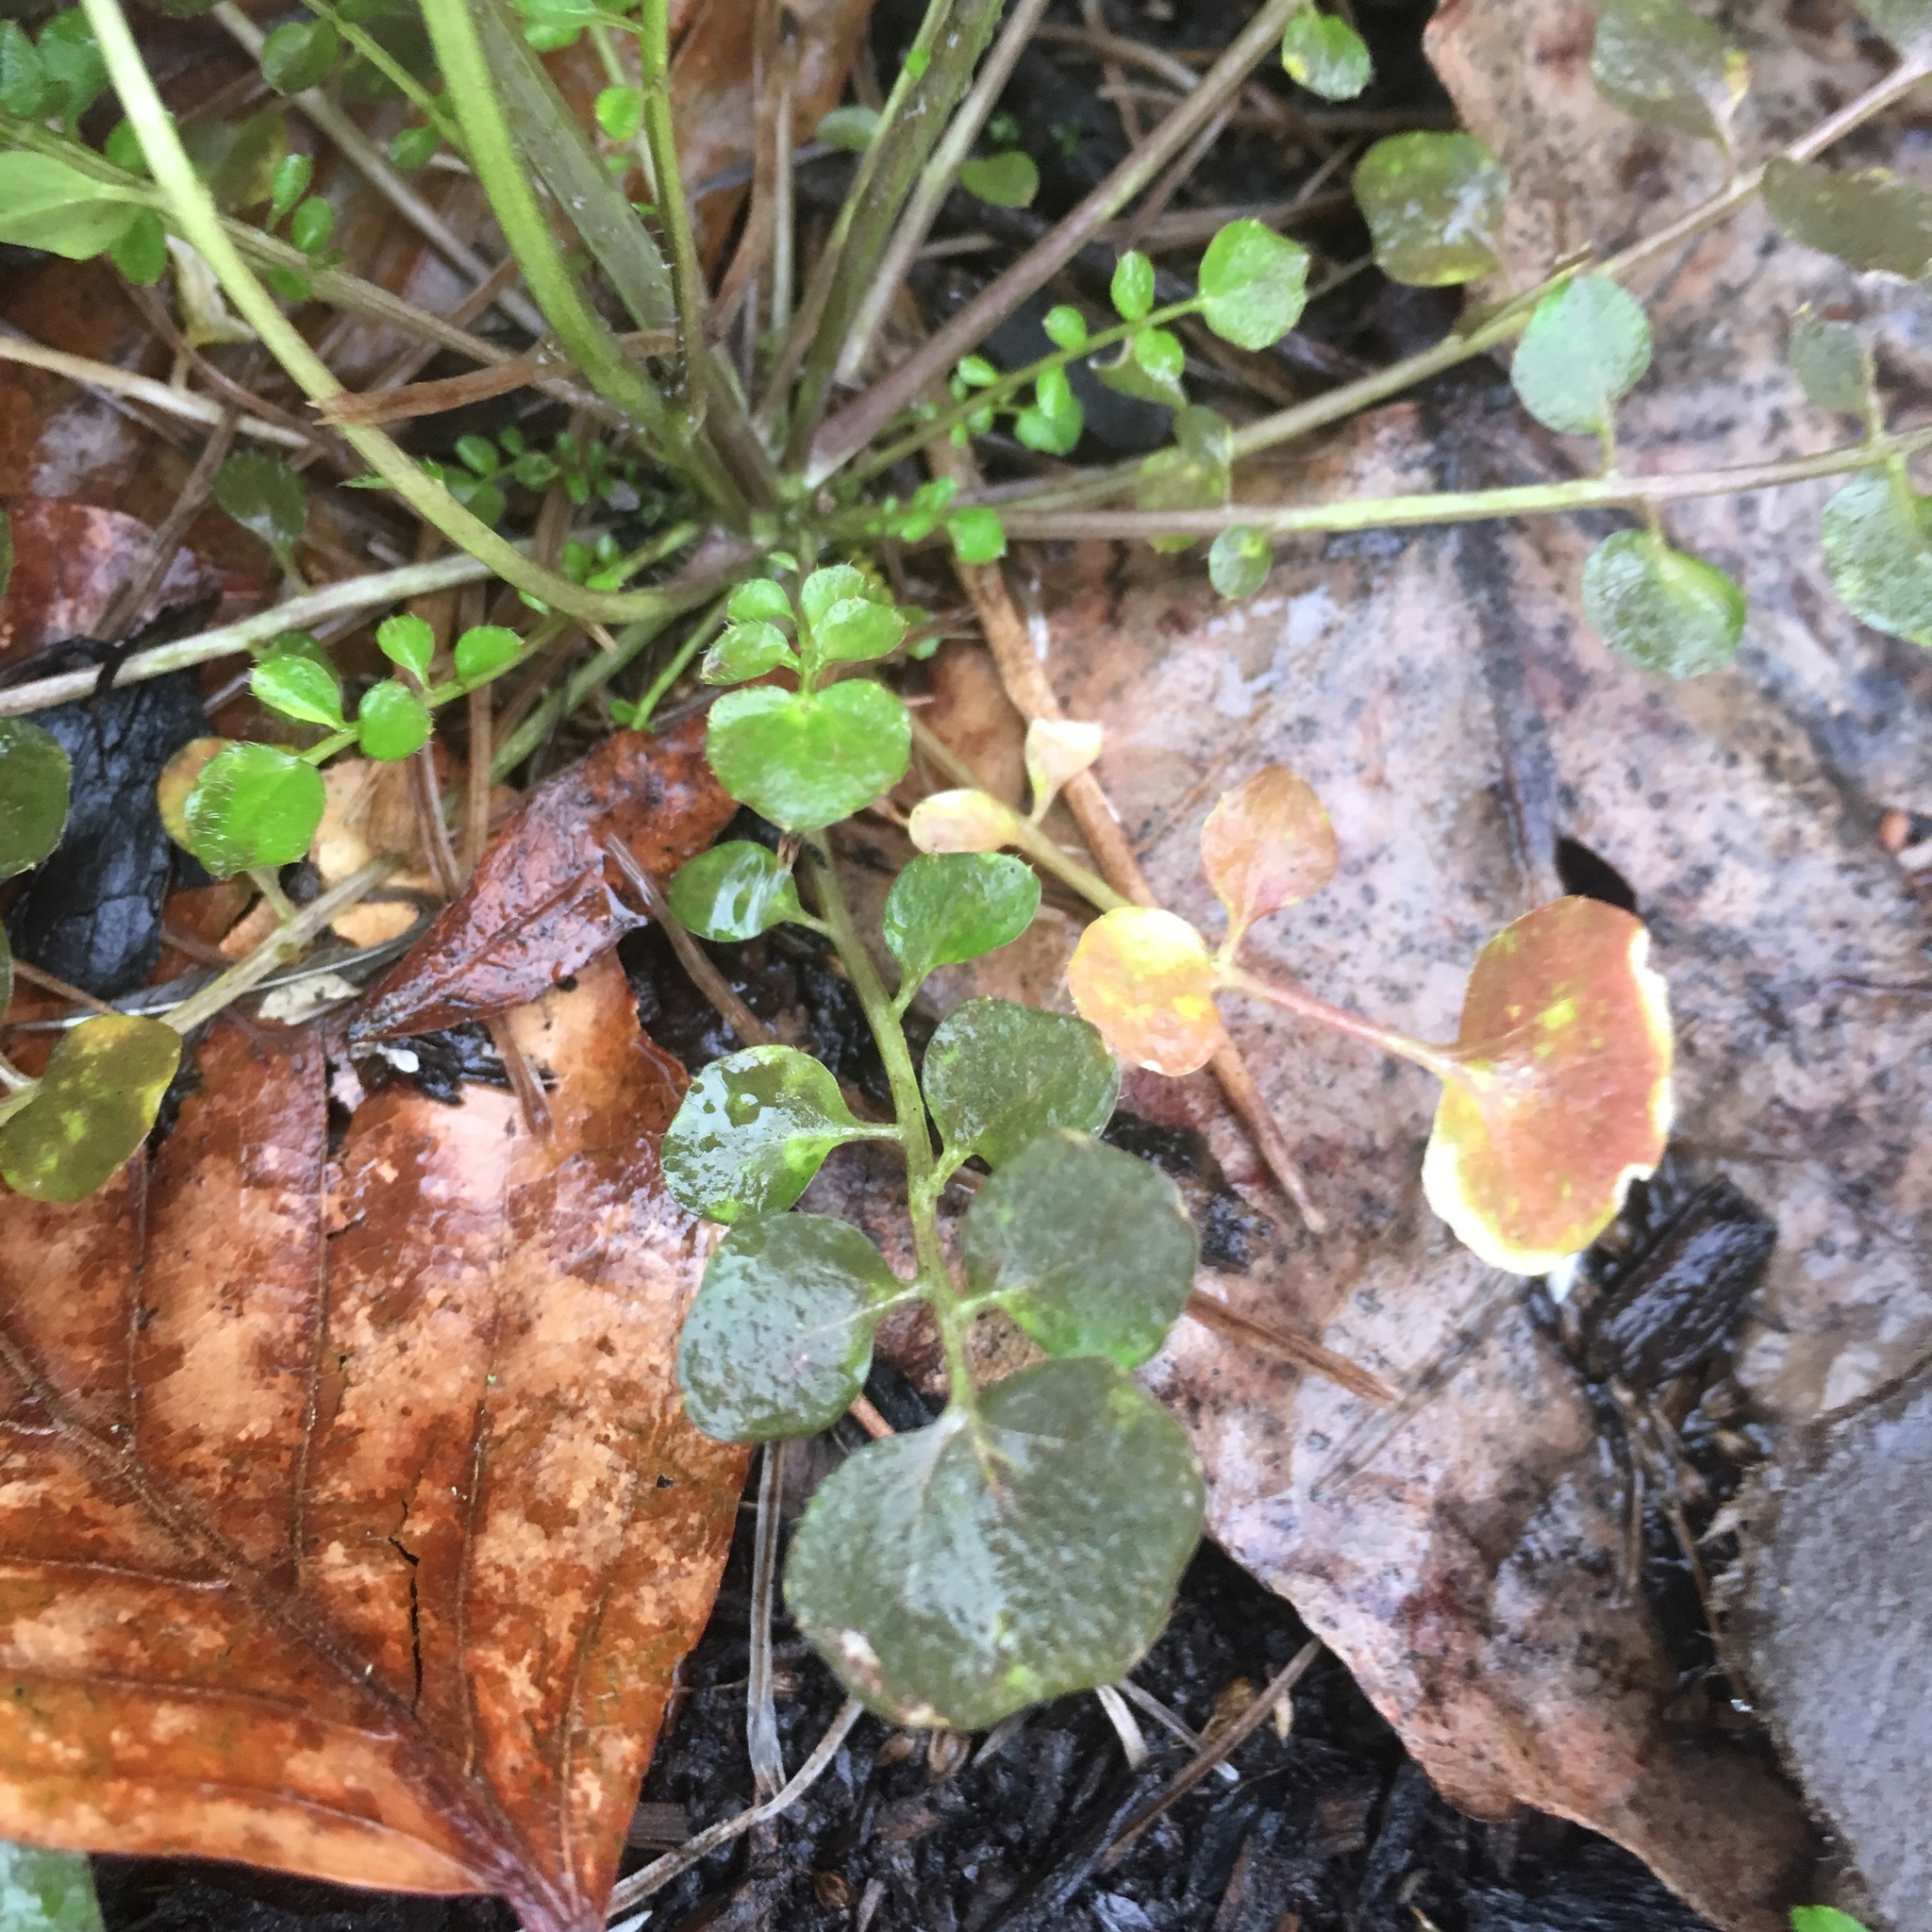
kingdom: Plantae
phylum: Tracheophyta
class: Magnoliopsida
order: Brassicales
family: Brassicaceae
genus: Cardamine
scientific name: Cardamine hirsuta
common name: Hairy bittercress
